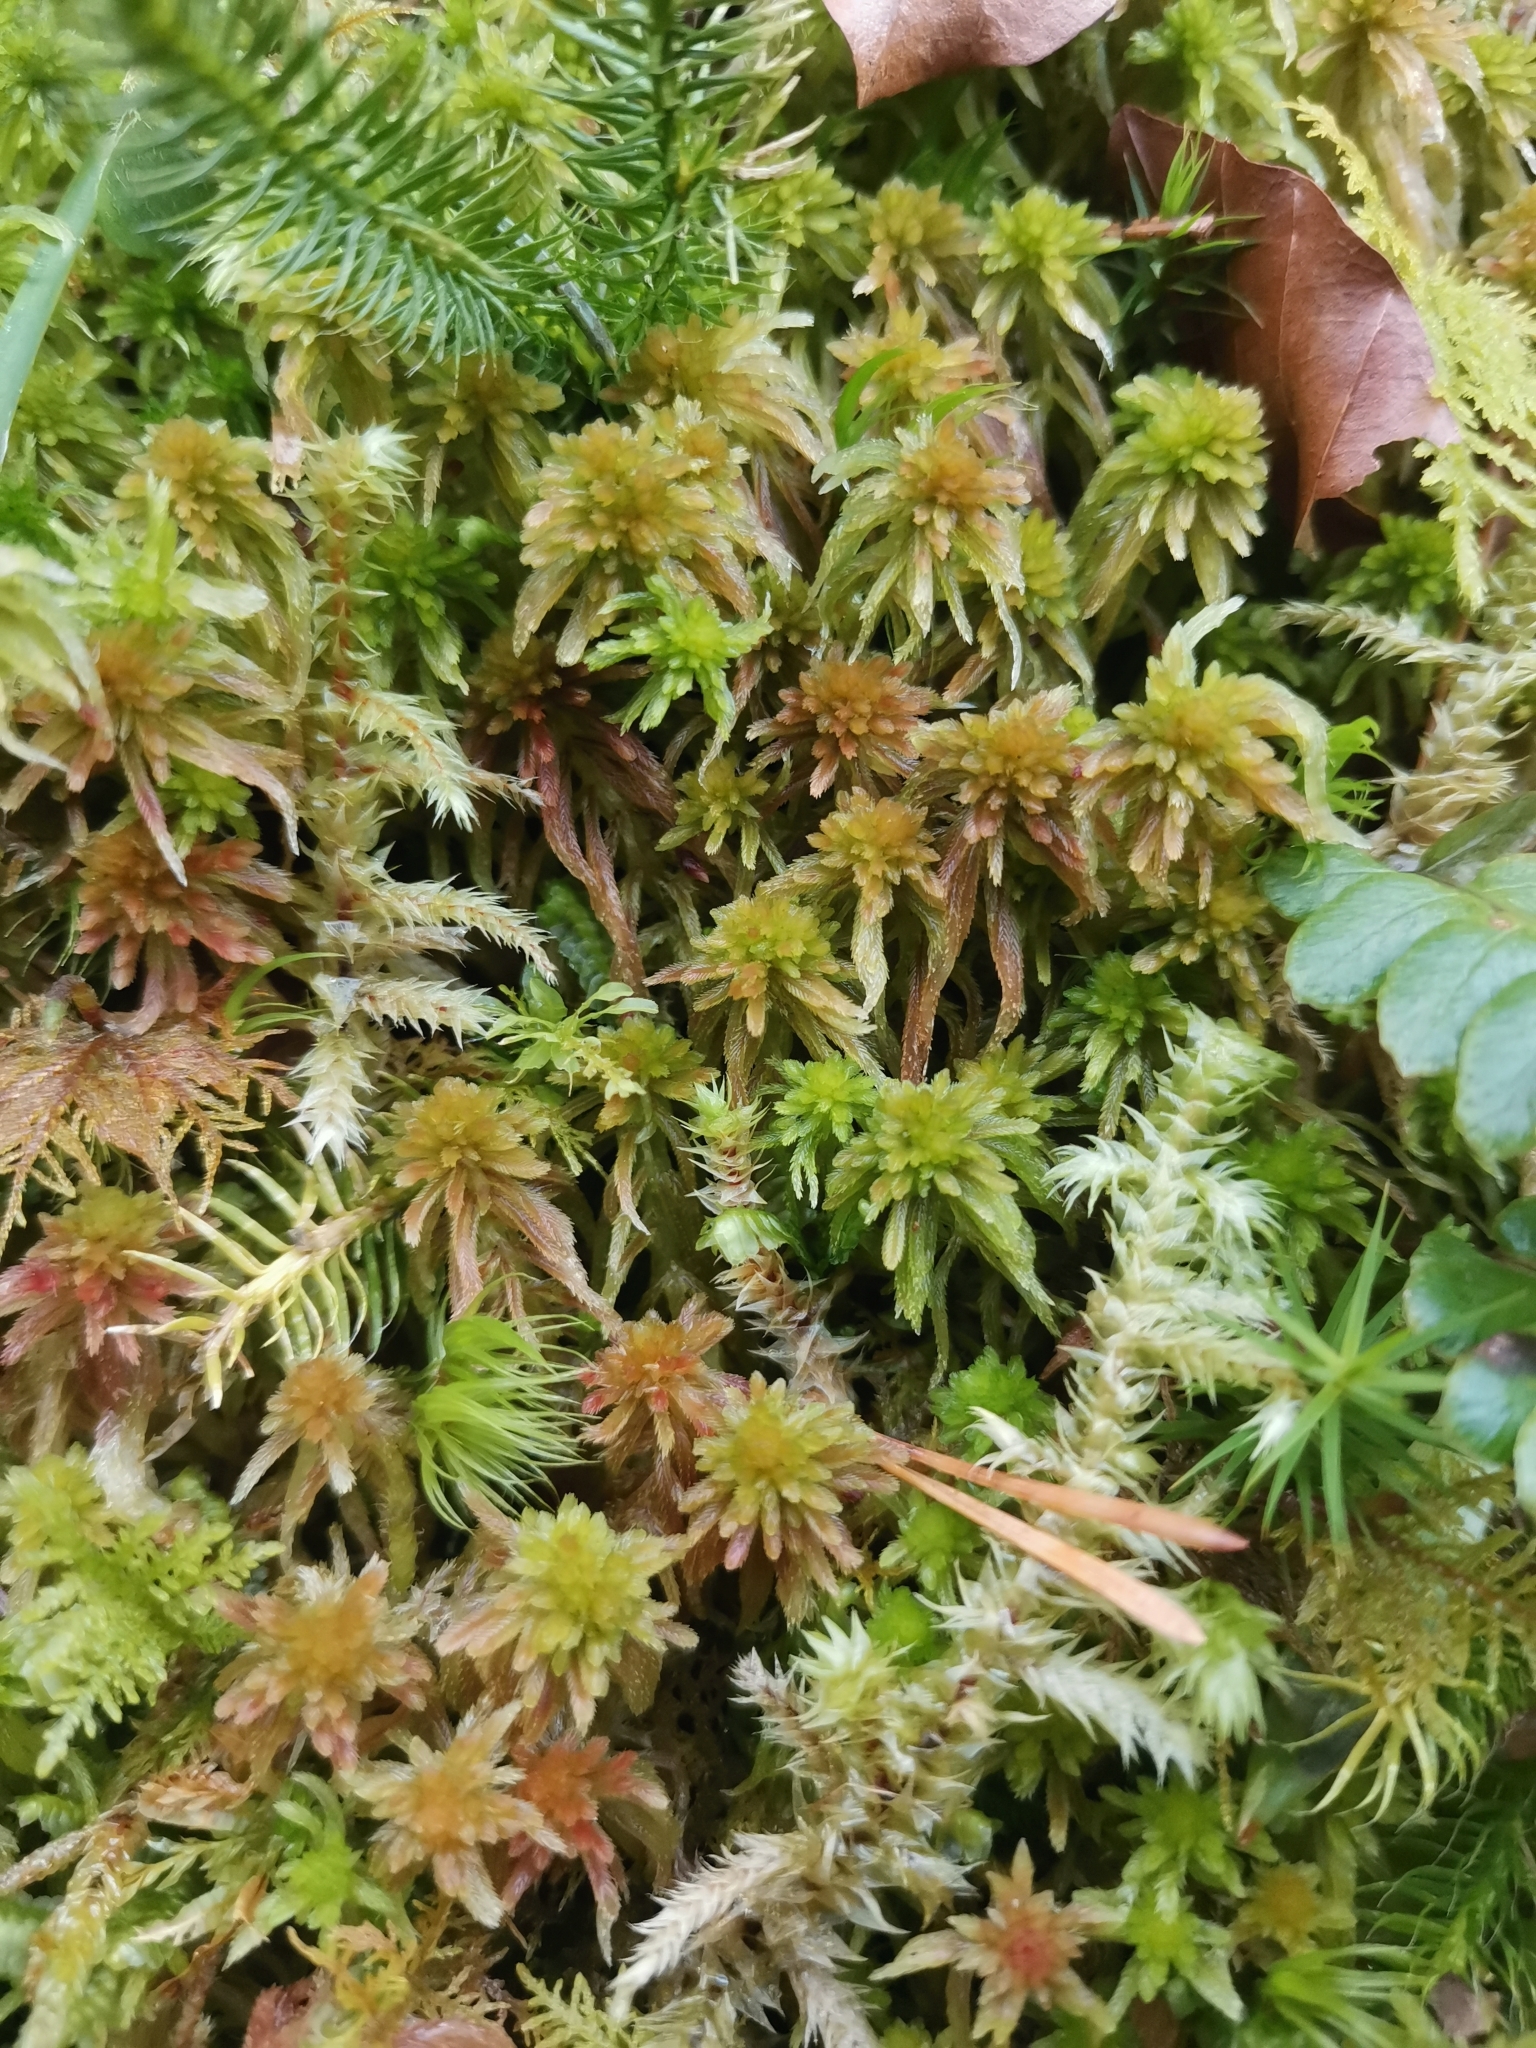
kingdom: Plantae
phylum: Bryophyta
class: Sphagnopsida
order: Sphagnales
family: Sphagnaceae
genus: Sphagnum
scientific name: Sphagnum quinquefarium
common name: Five-ranked peat moss
